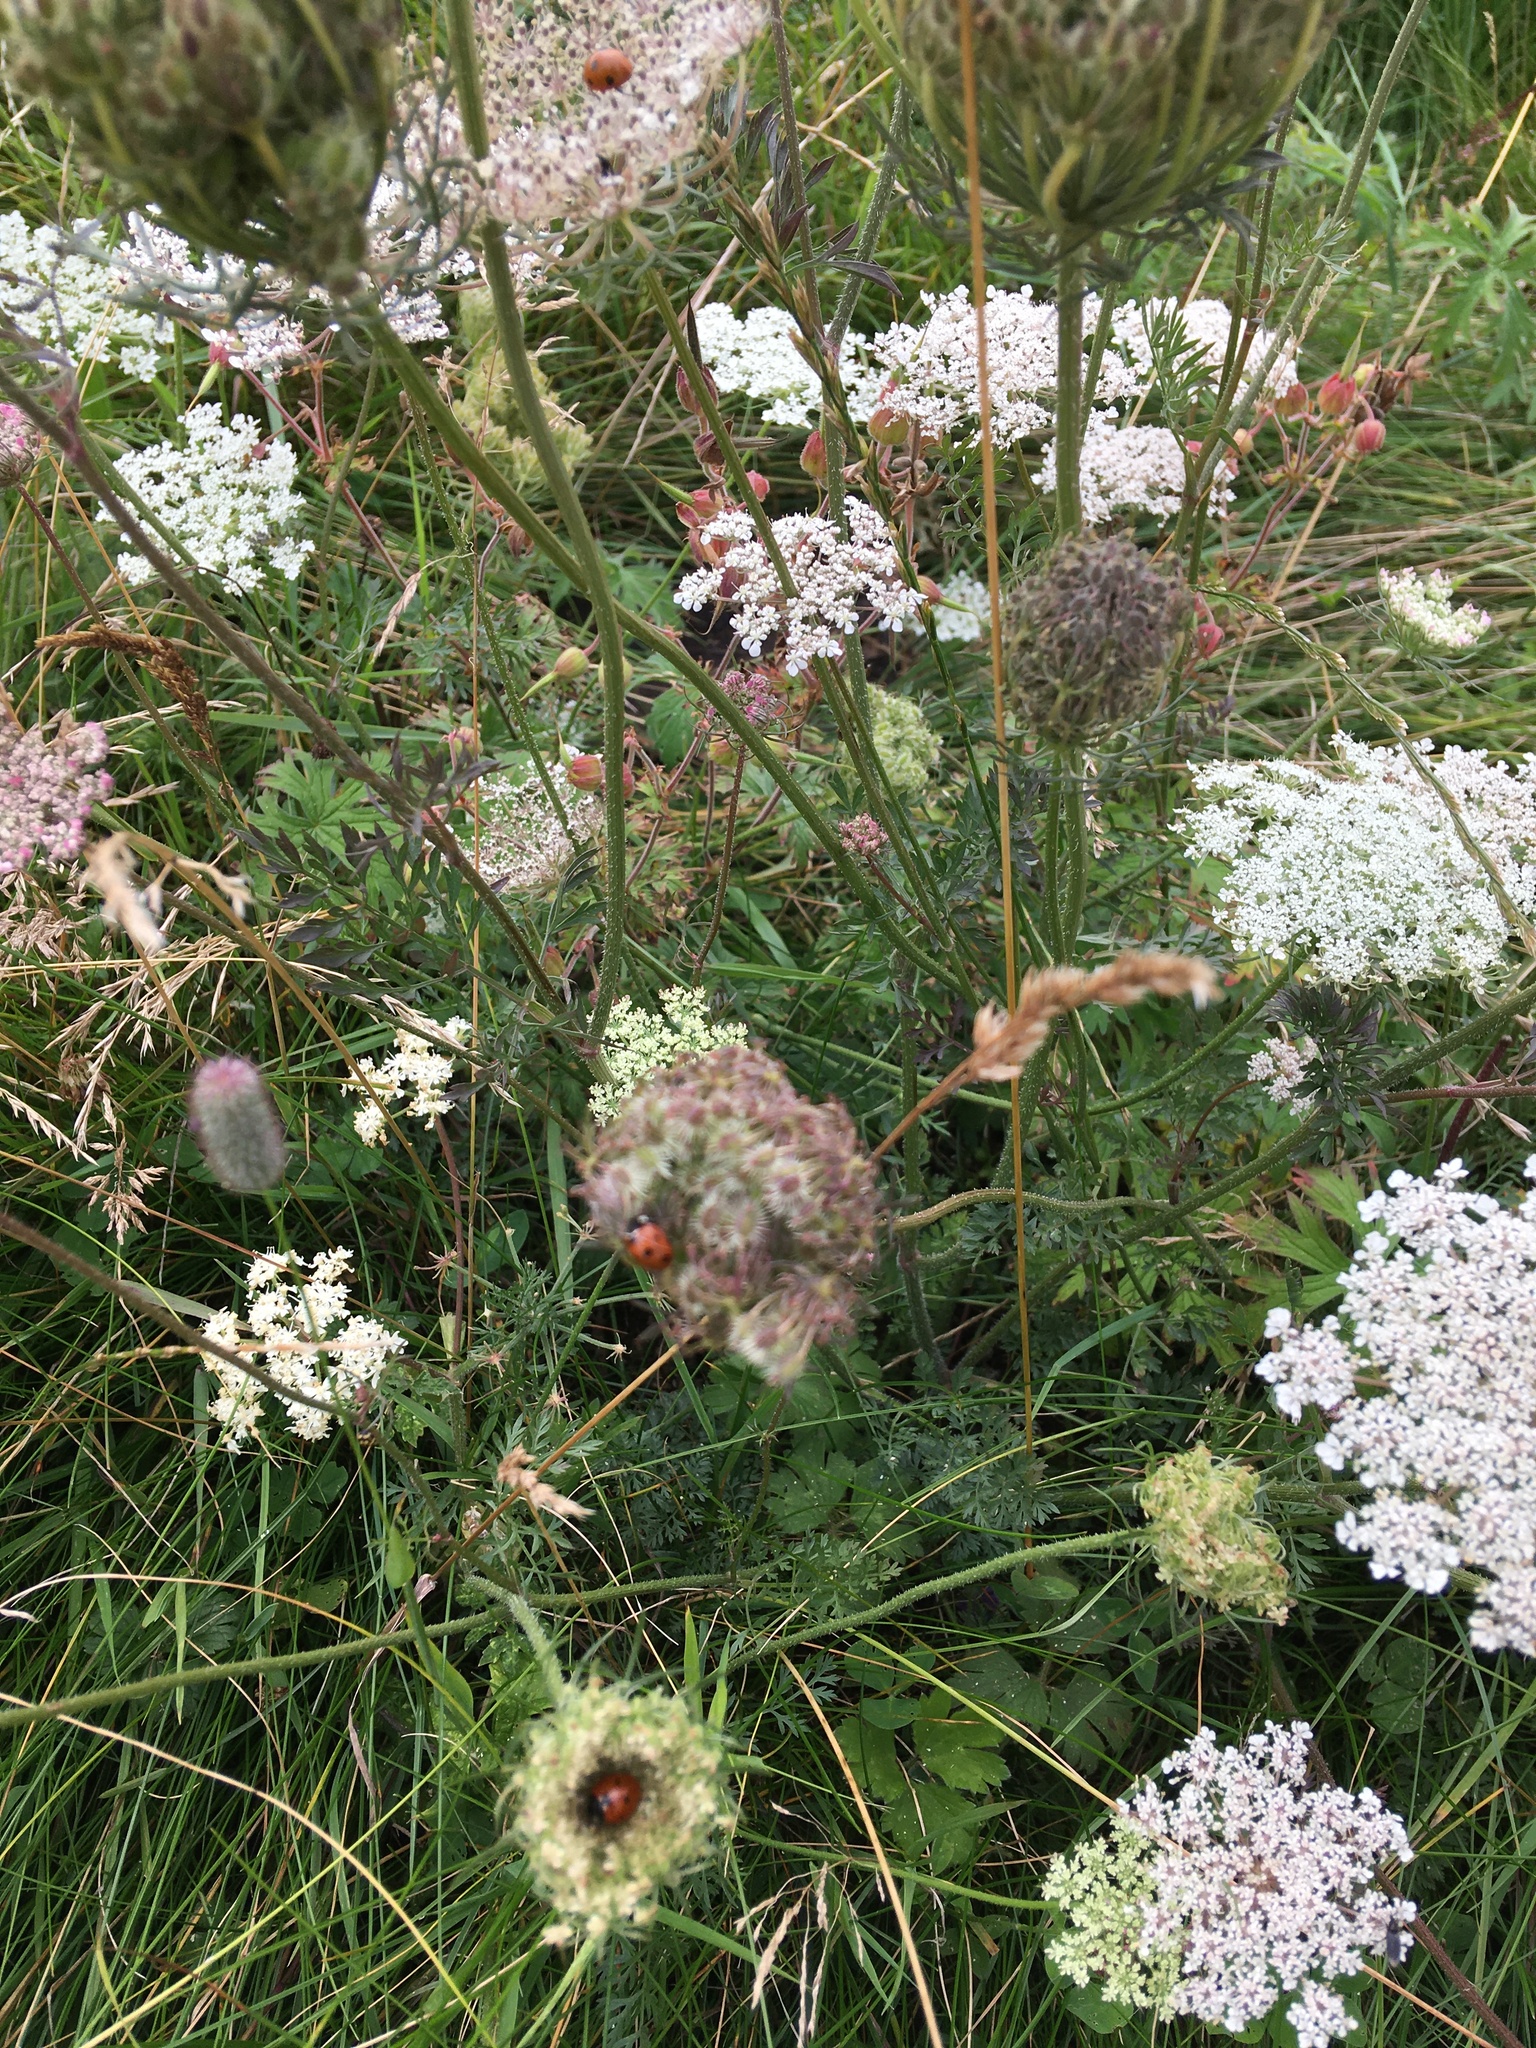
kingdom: Animalia
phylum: Arthropoda
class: Insecta
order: Coleoptera
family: Coccinellidae
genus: Coccinella
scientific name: Coccinella septempunctata
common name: Sevenspotted lady beetle
